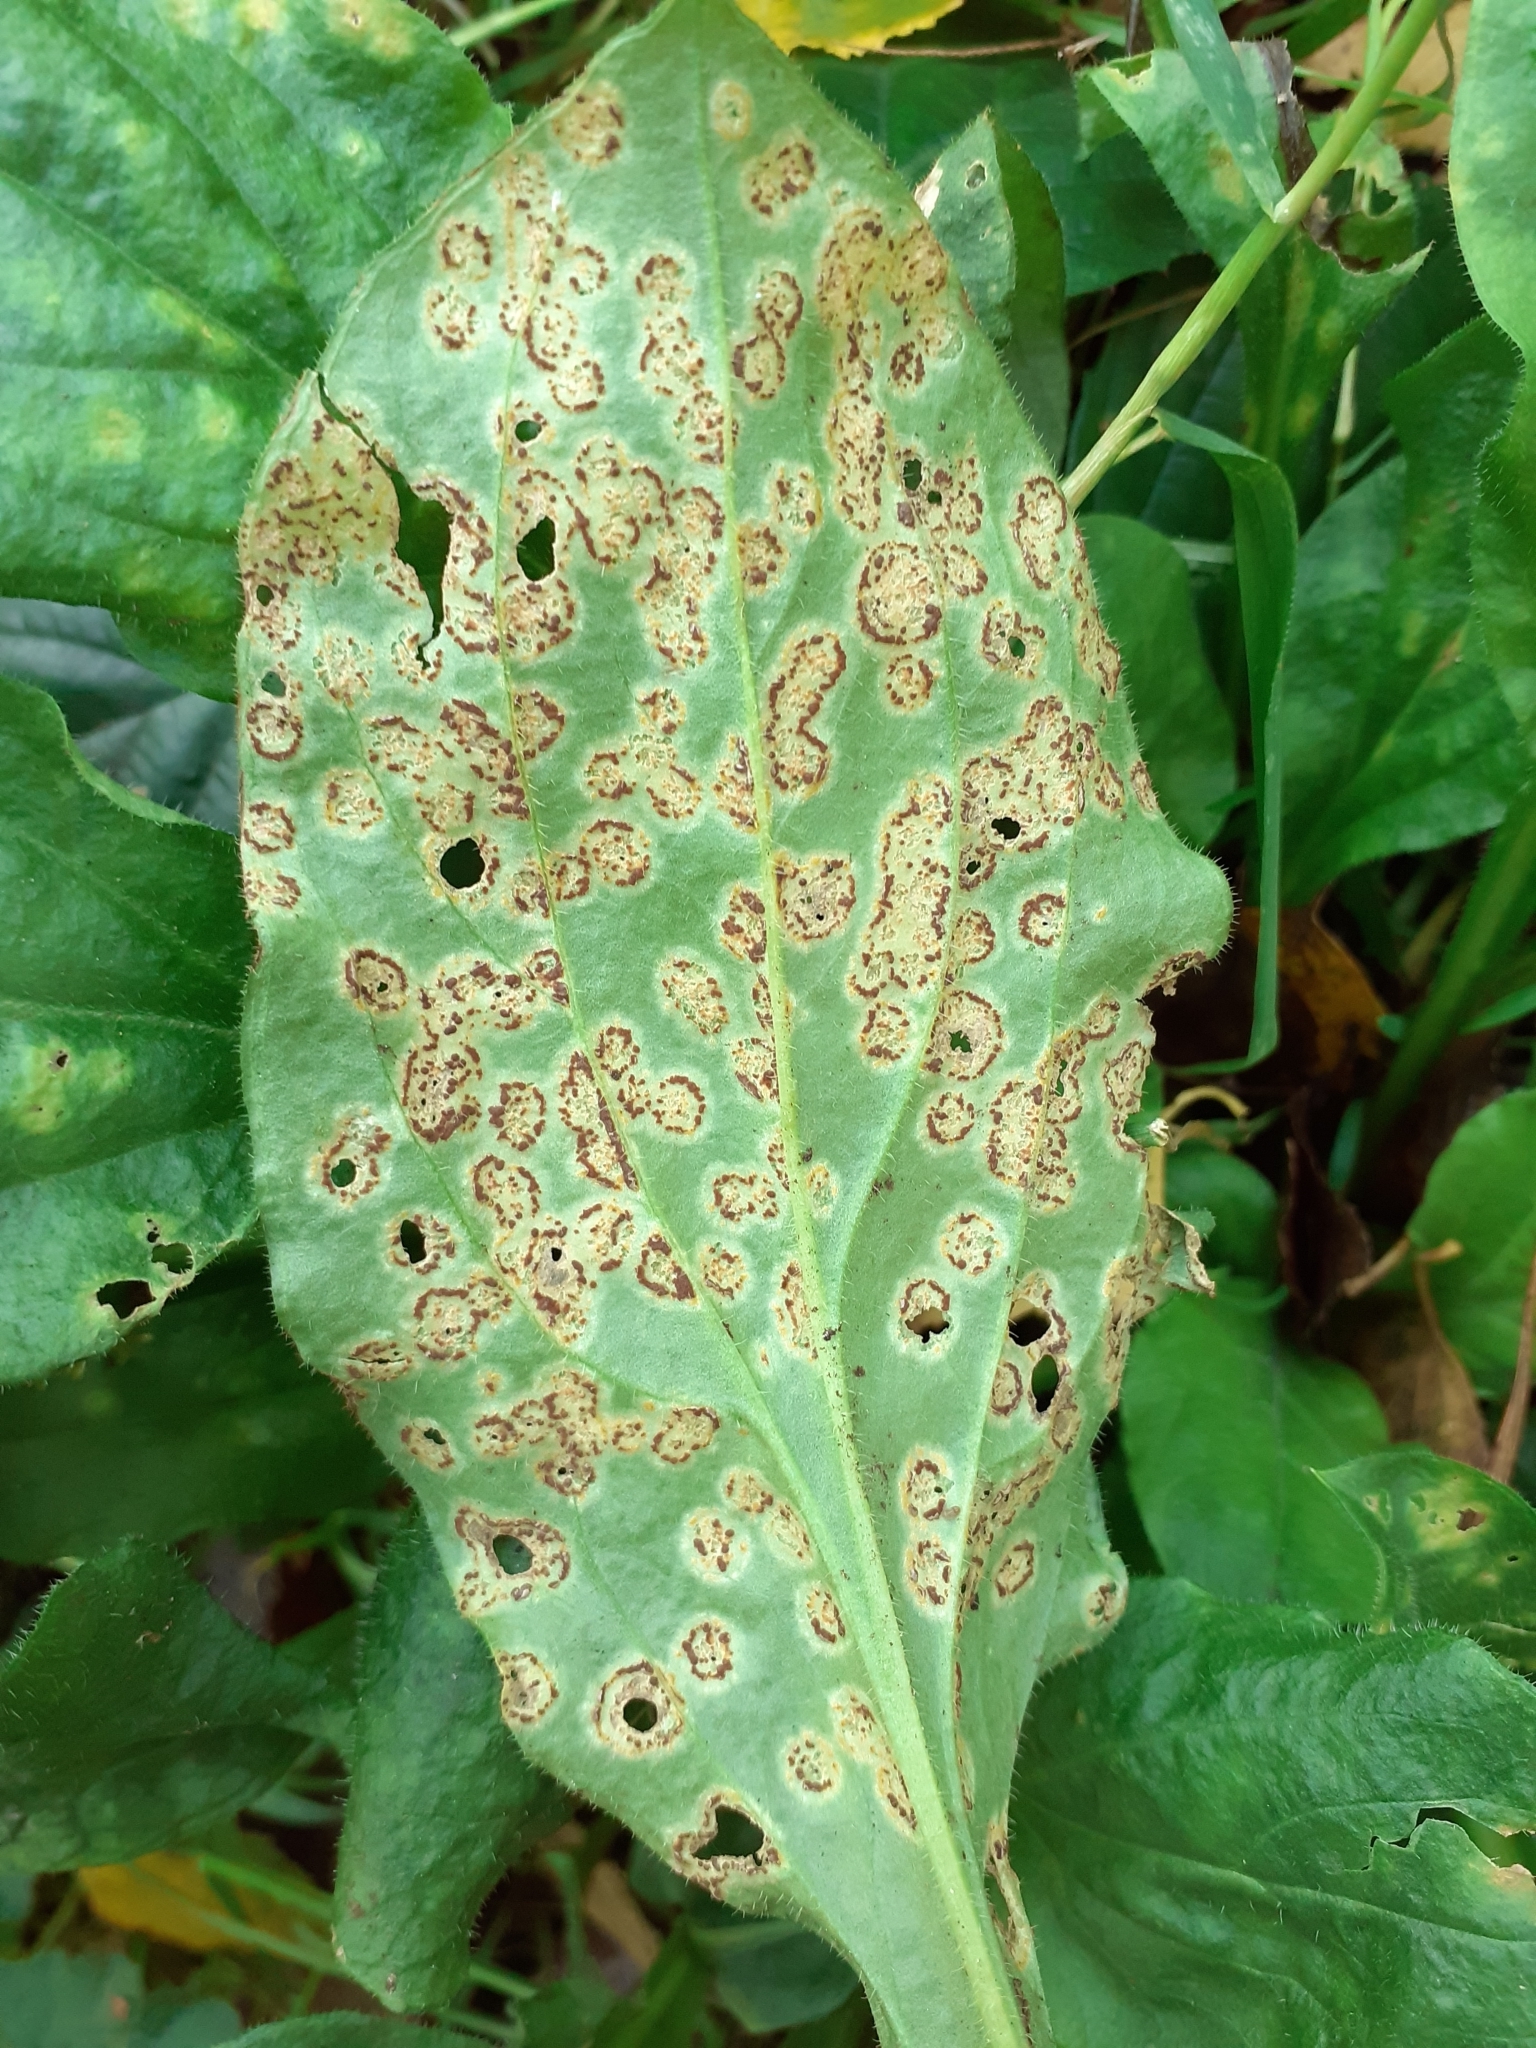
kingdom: Fungi
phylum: Basidiomycota
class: Pucciniomycetes
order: Pucciniales
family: Pucciniaceae
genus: Puccinia
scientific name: Puccinia arenariae
